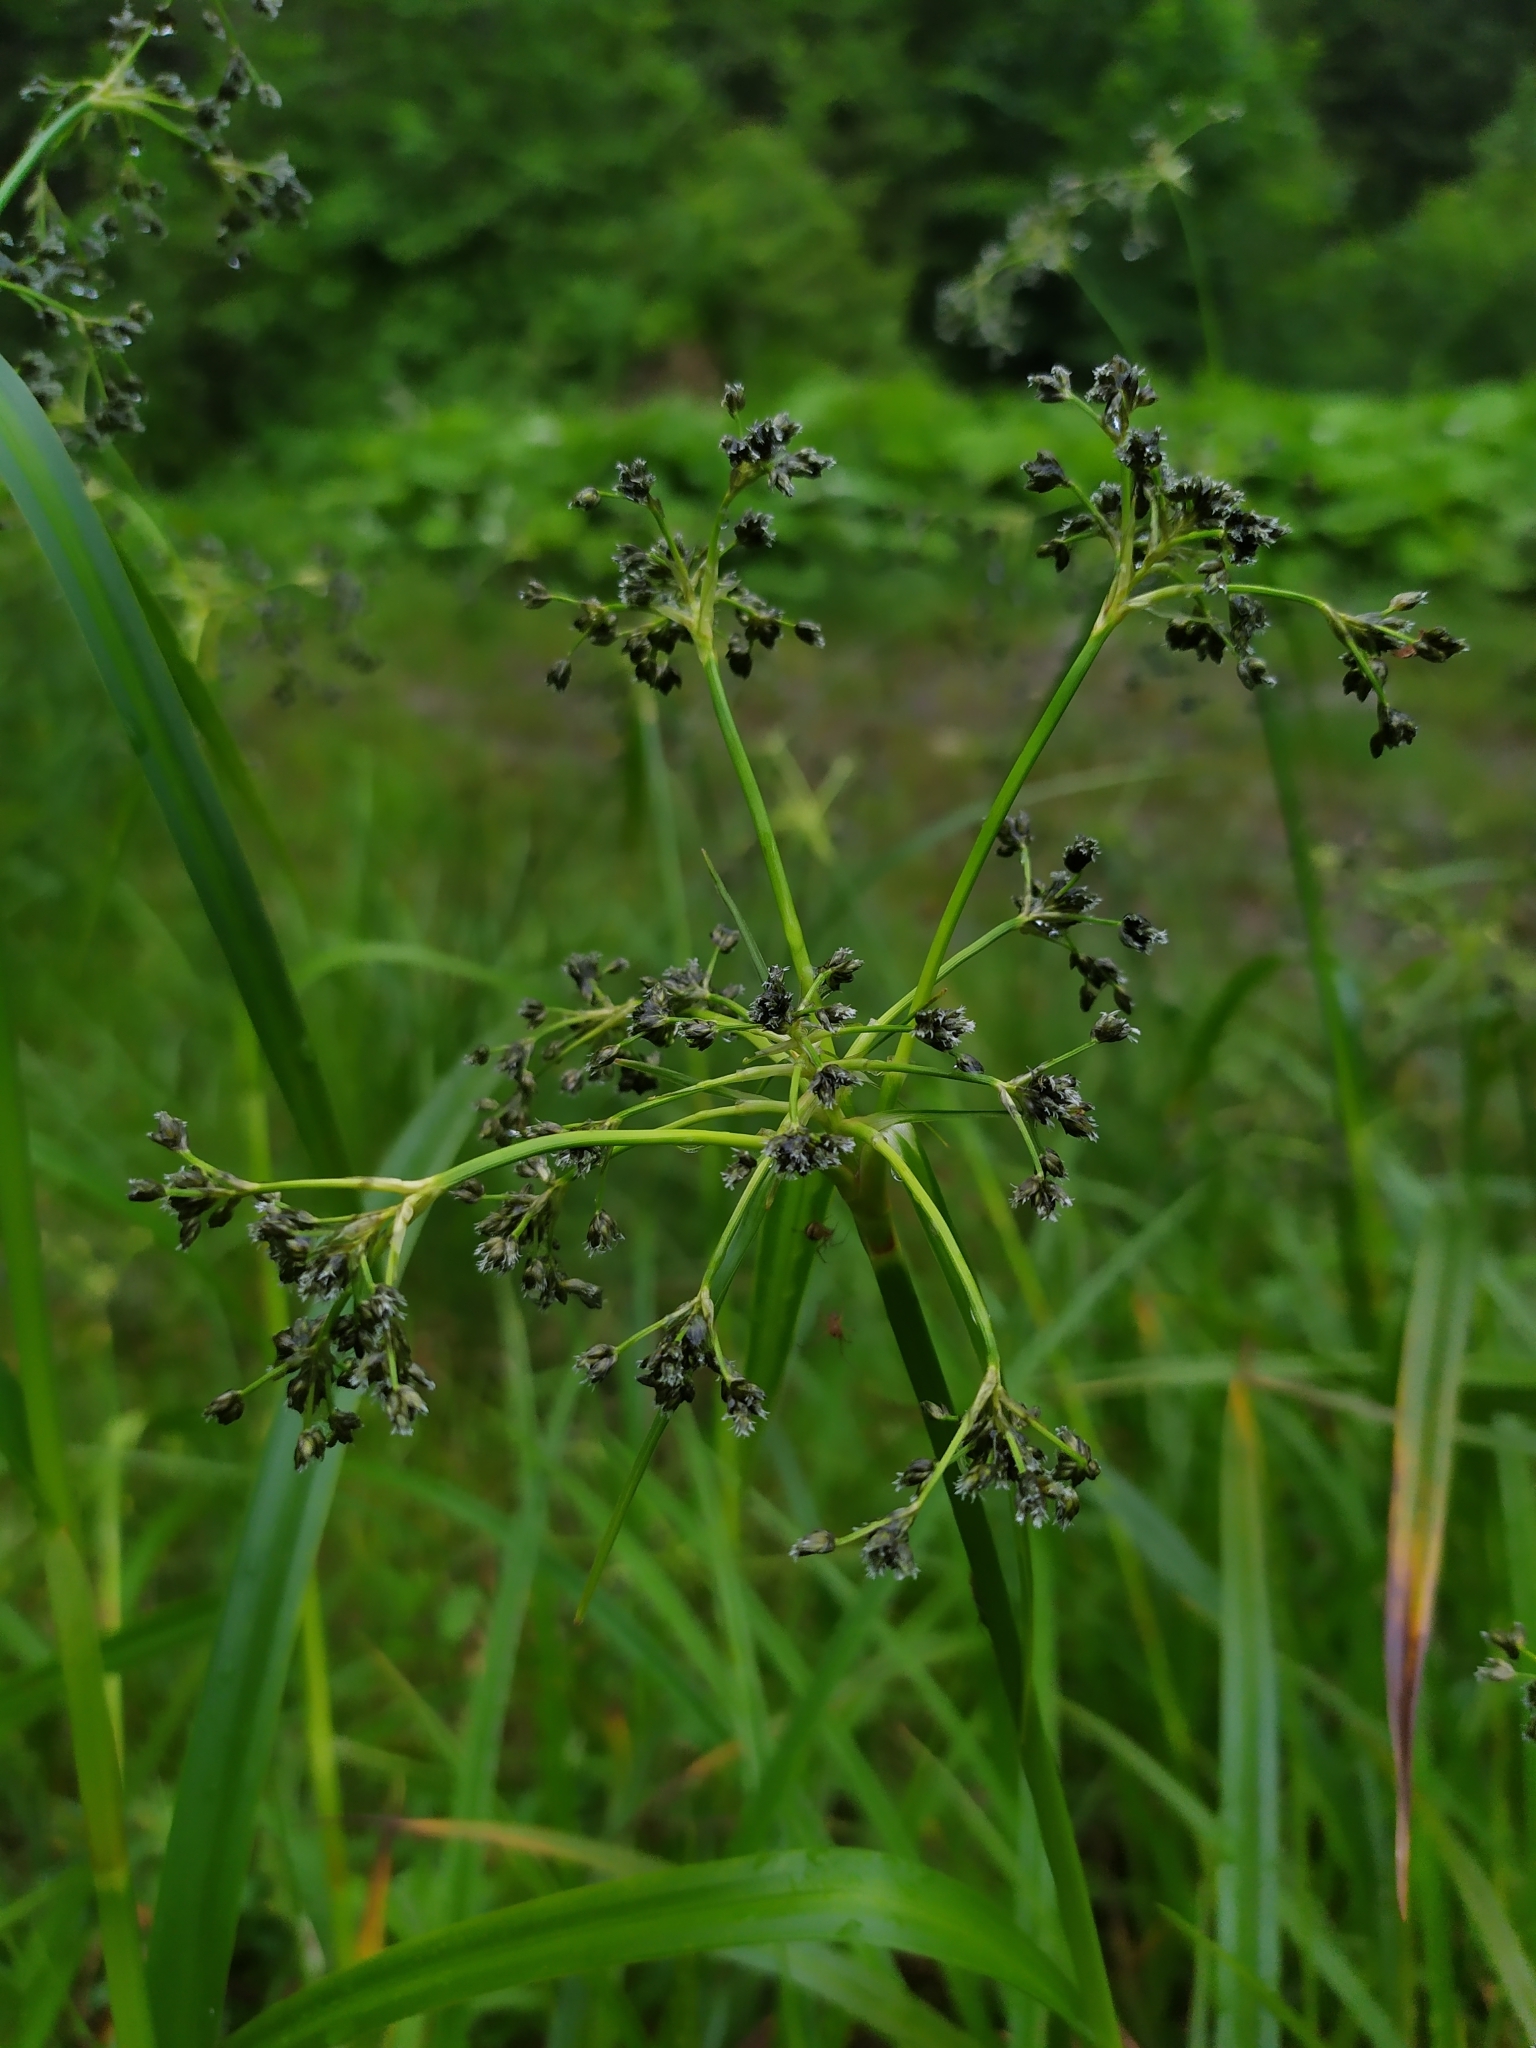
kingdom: Plantae
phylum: Tracheophyta
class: Liliopsida
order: Poales
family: Cyperaceae
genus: Scirpus
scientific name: Scirpus sylvaticus
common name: Wood club-rush
